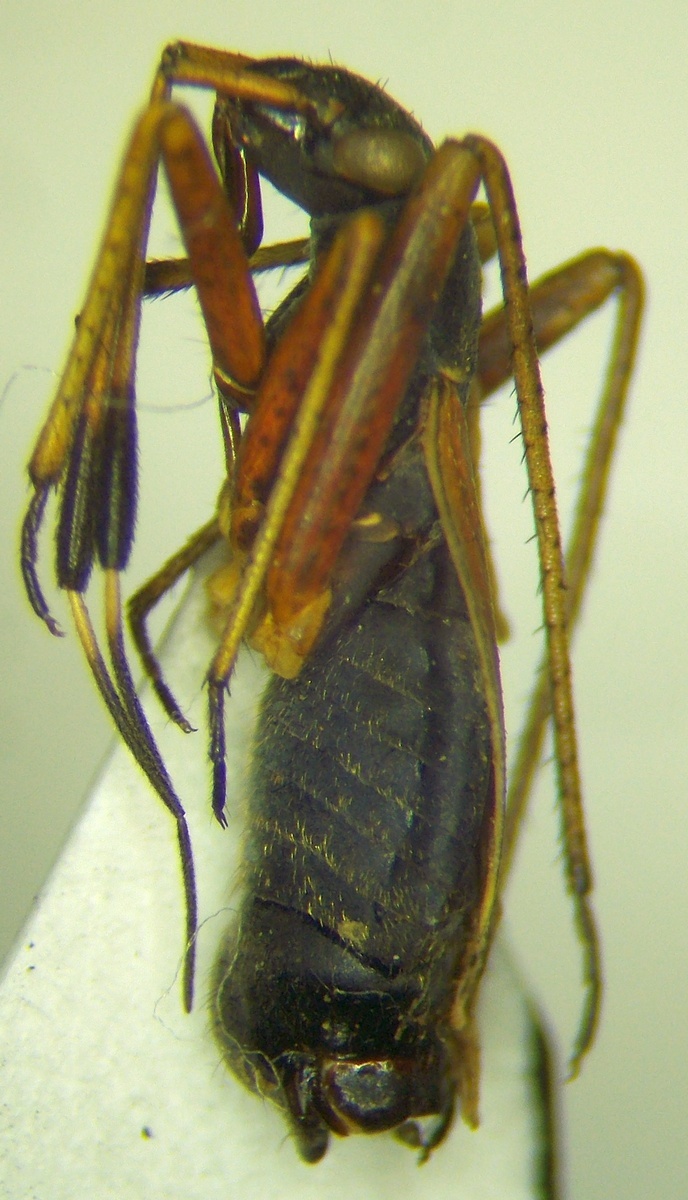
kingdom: Animalia
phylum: Arthropoda
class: Insecta
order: Hemiptera
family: Miridae
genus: Aphanosoma
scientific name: Aphanosoma italicum
